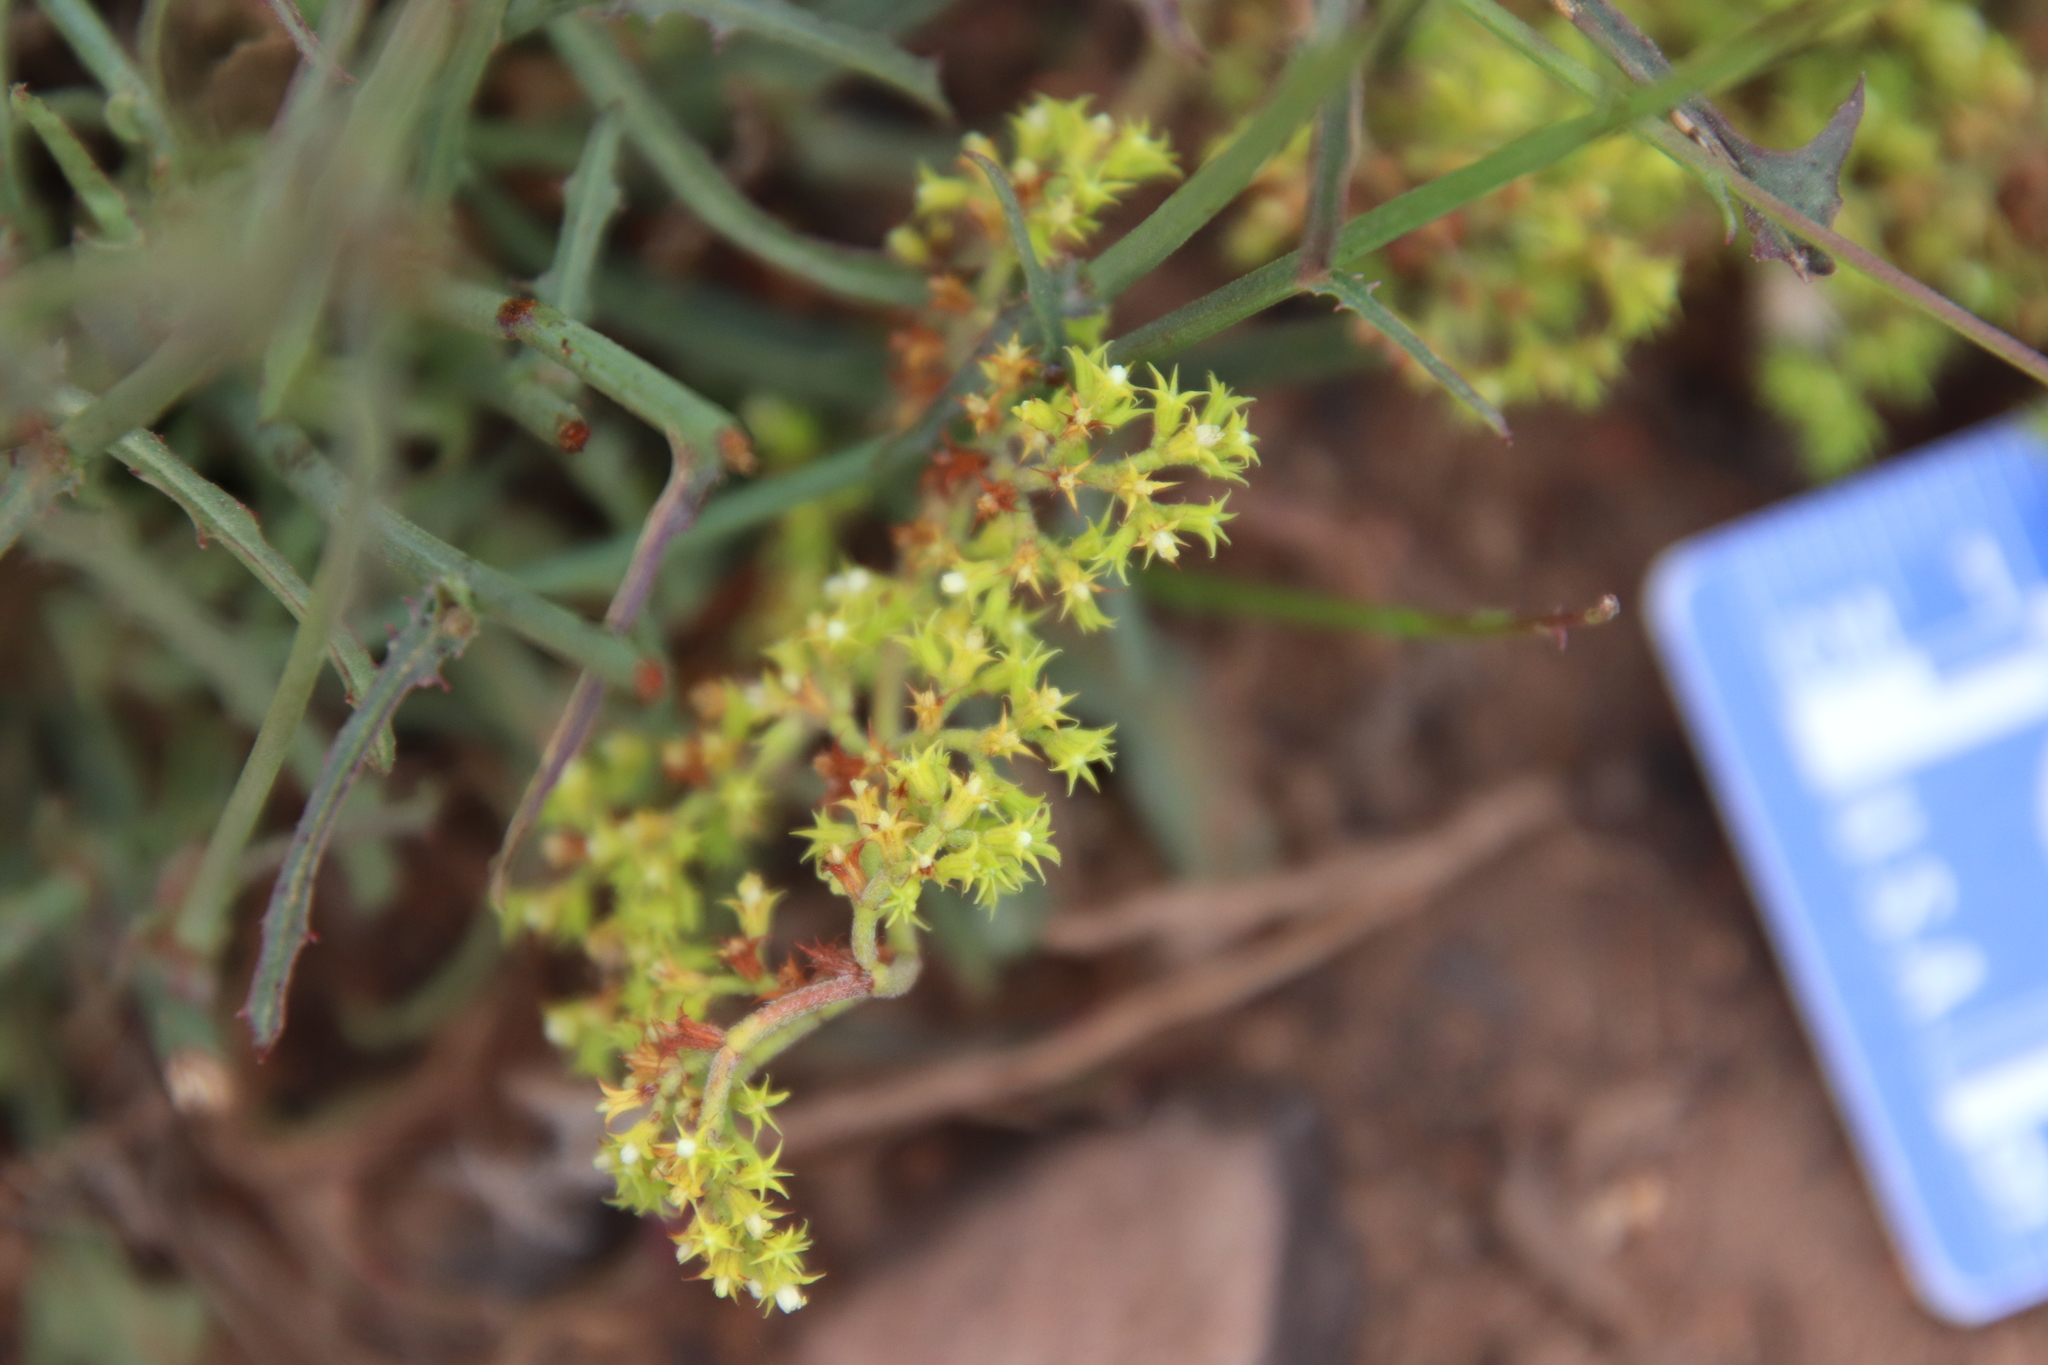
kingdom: Plantae
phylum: Tracheophyta
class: Magnoliopsida
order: Caryophyllales
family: Polygonaceae
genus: Chorizanthe
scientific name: Chorizanthe procumbens
